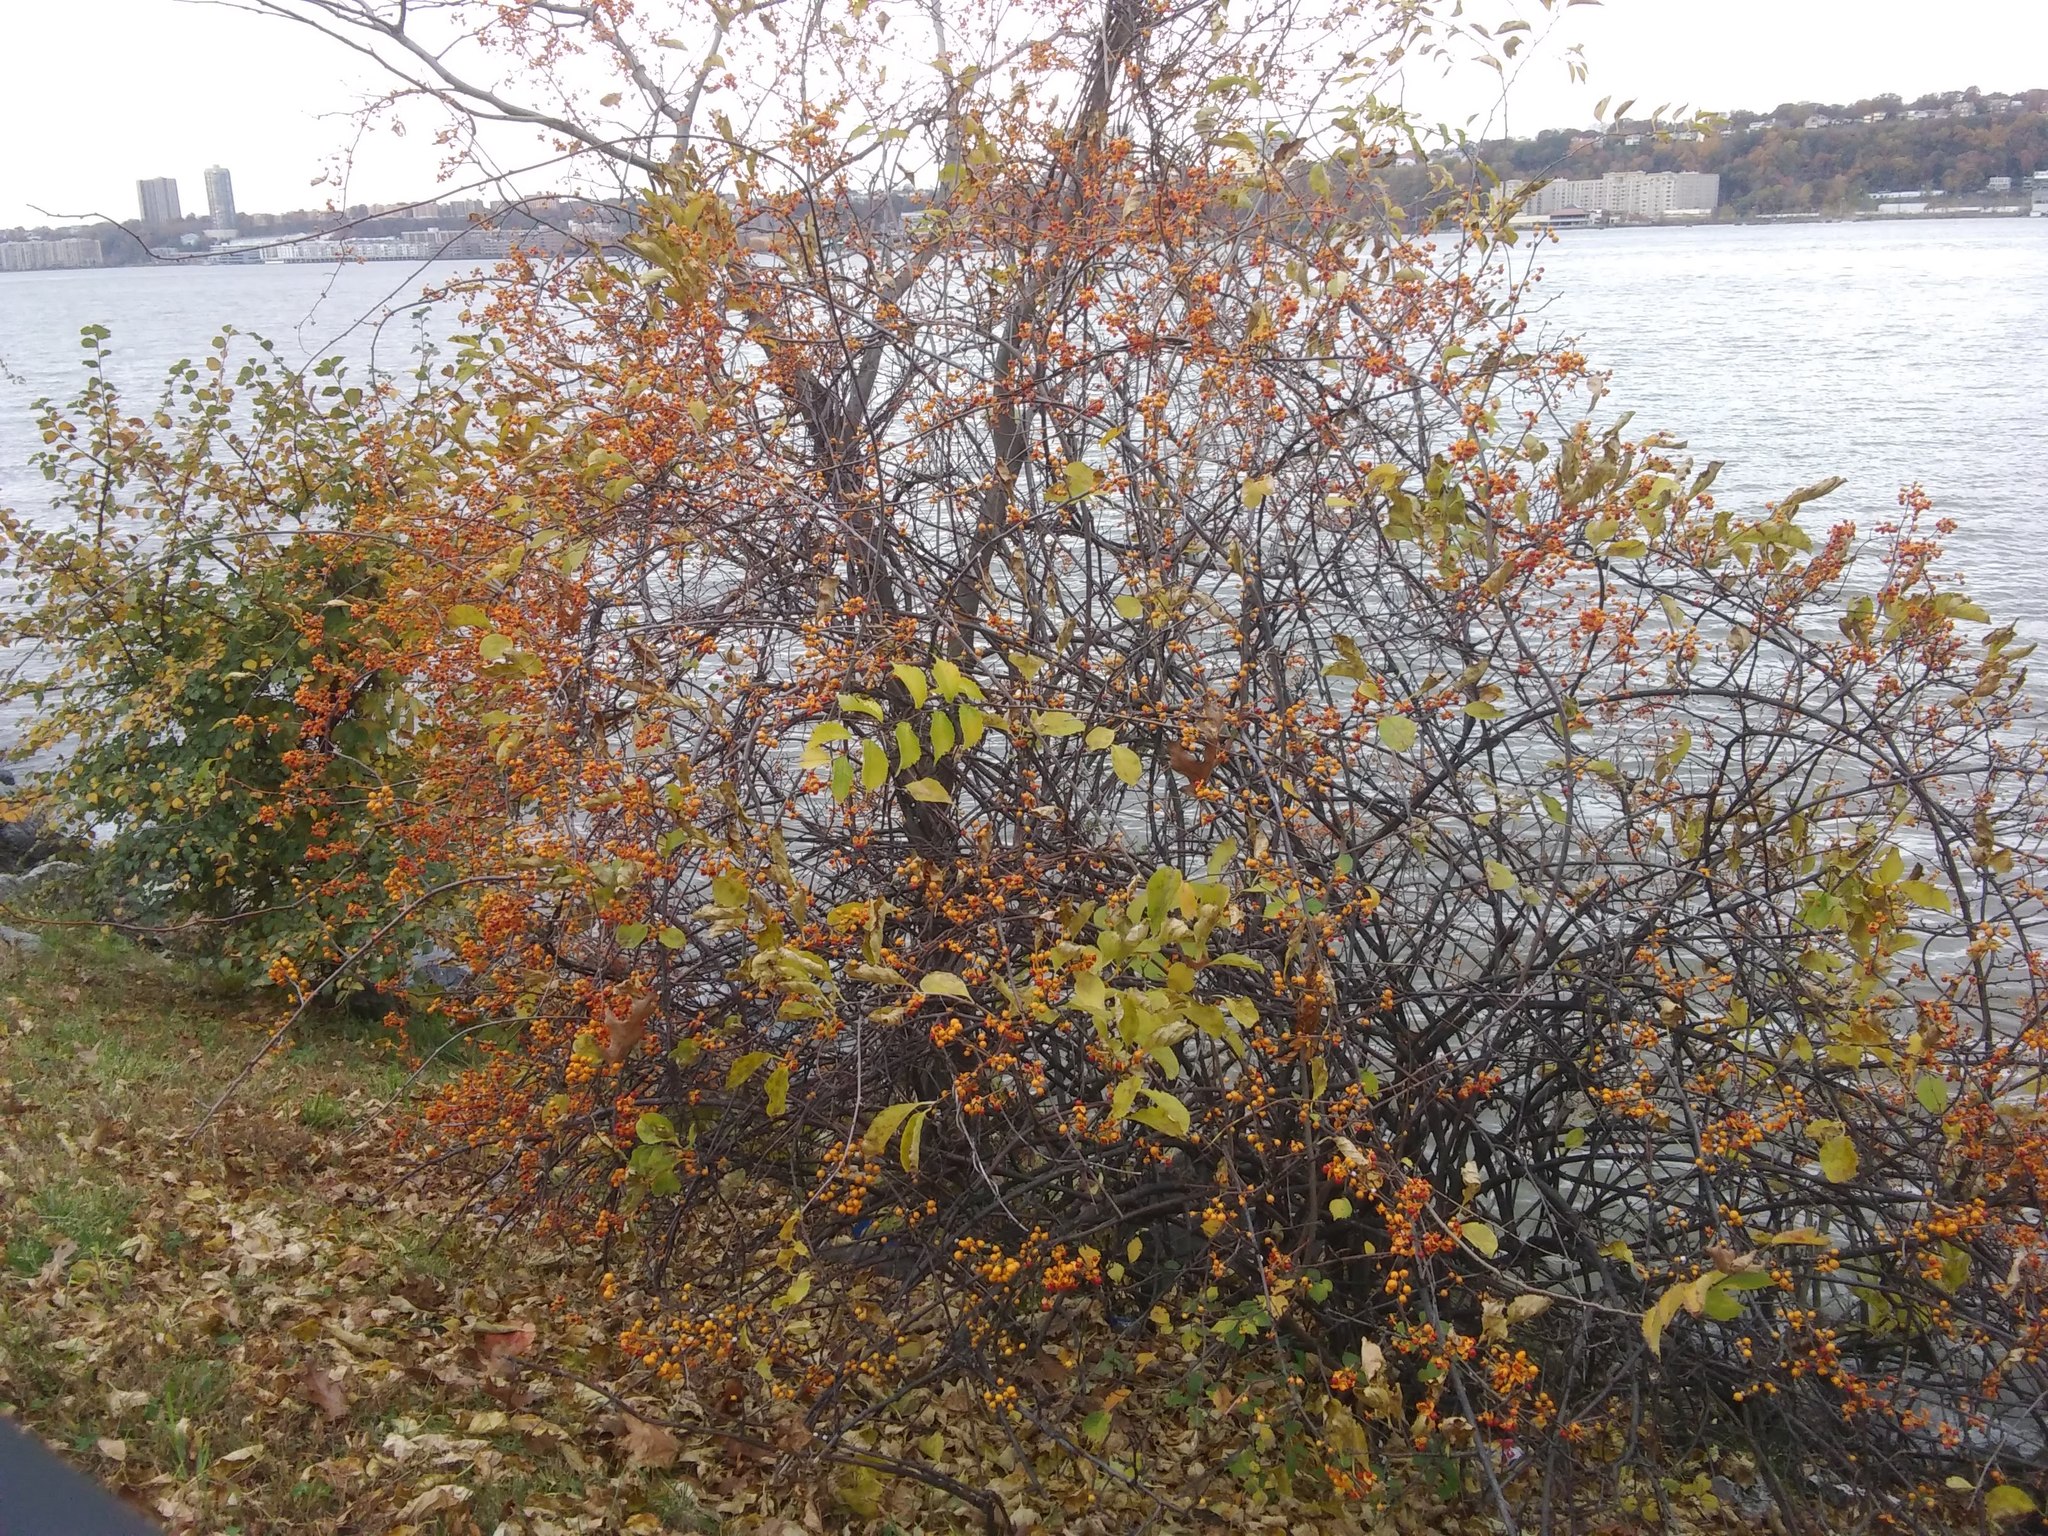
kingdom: Plantae
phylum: Tracheophyta
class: Magnoliopsida
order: Celastrales
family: Celastraceae
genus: Celastrus
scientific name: Celastrus orbiculatus
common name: Oriental bittersweet
